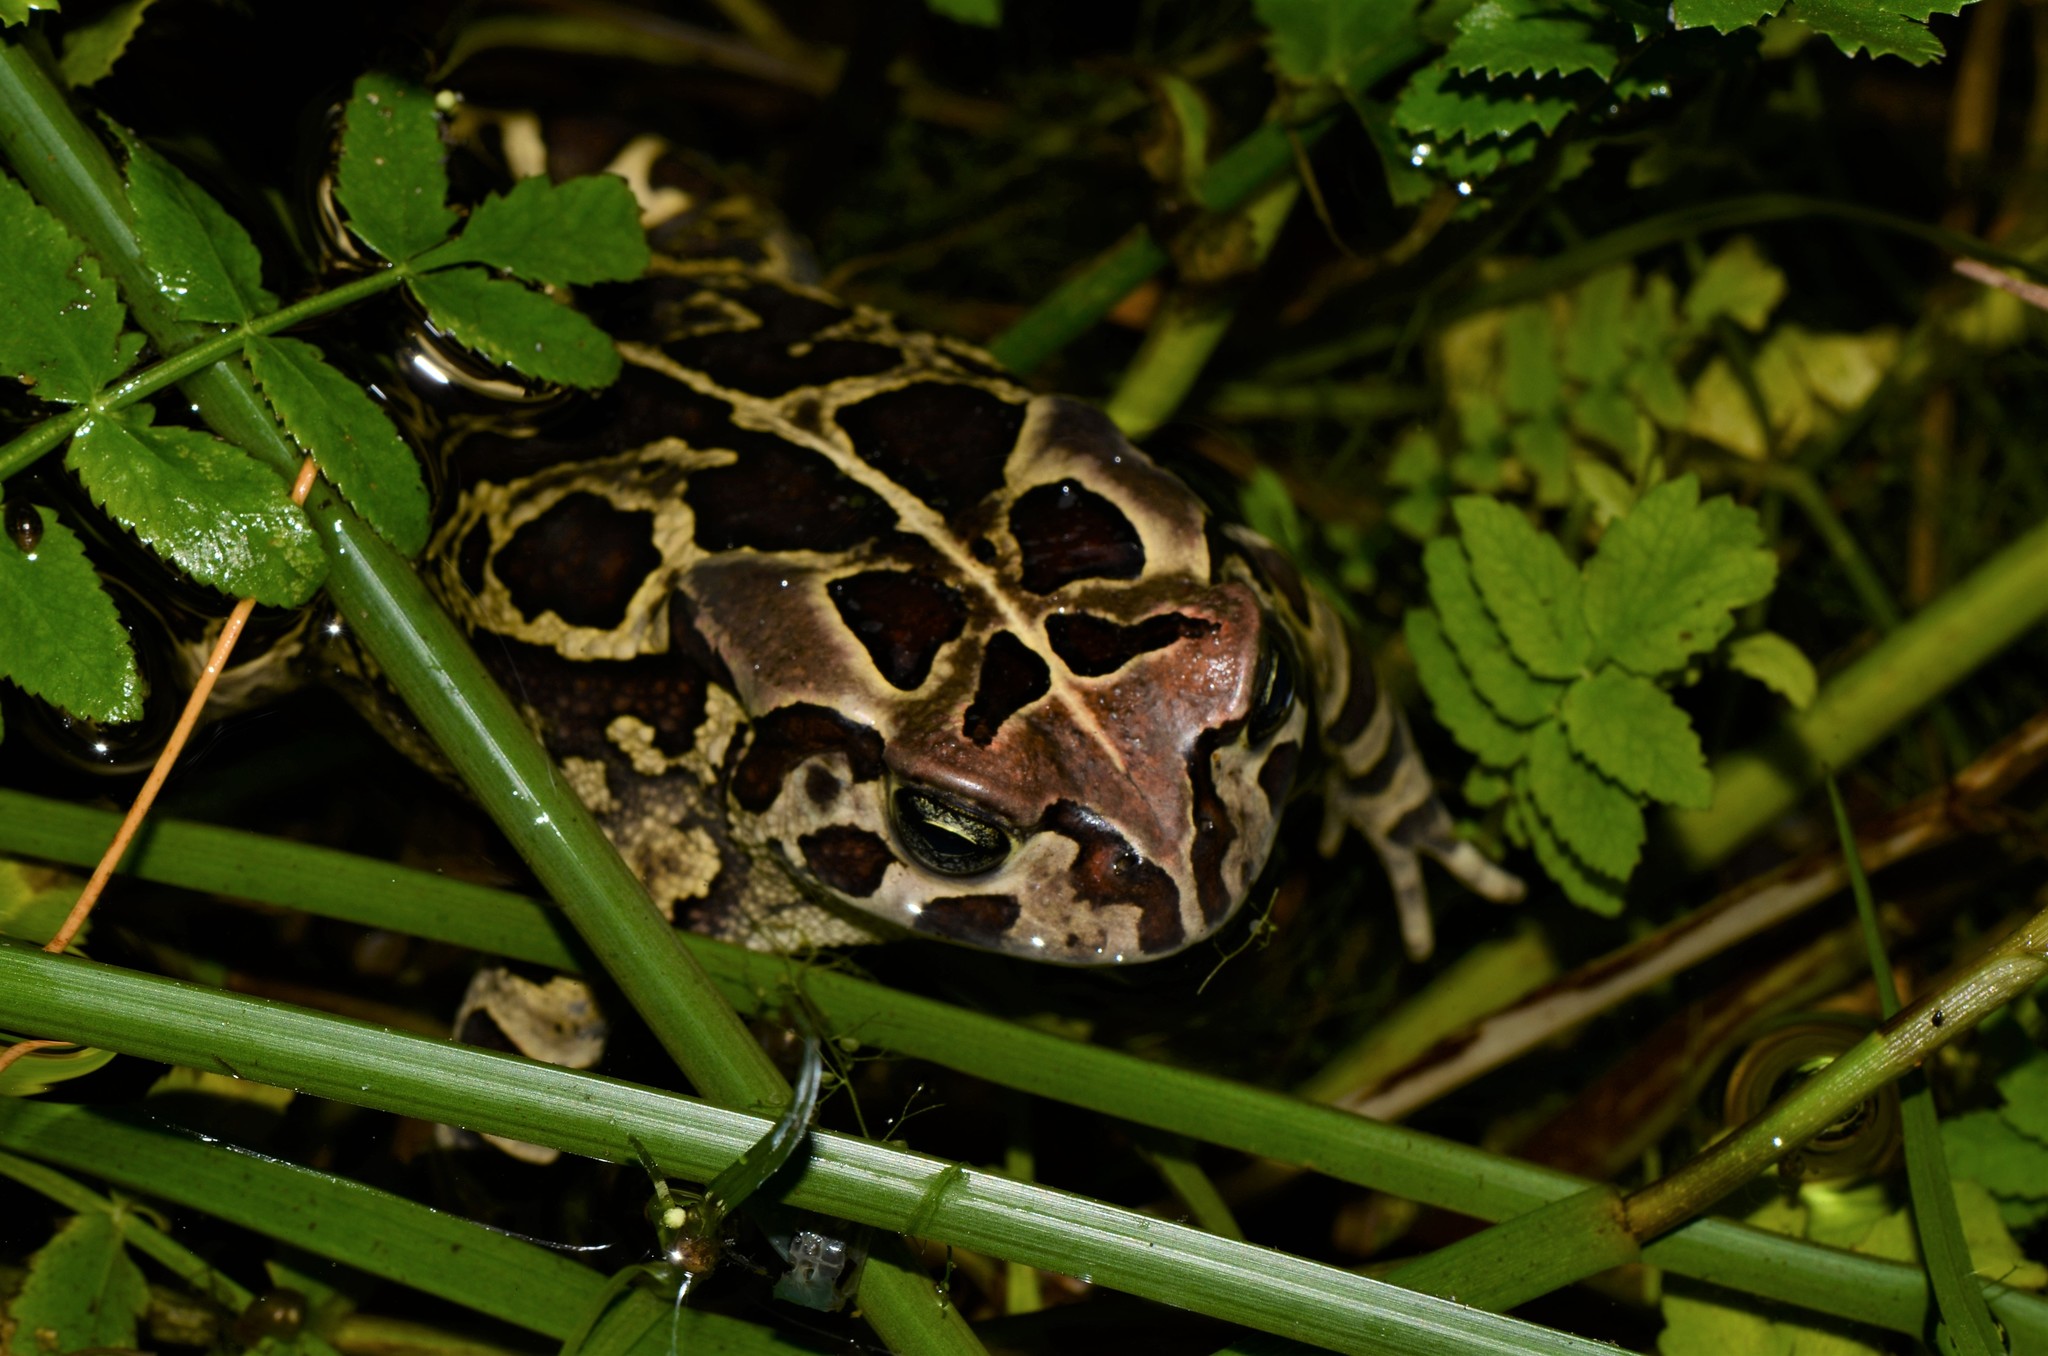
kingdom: Animalia
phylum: Chordata
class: Amphibia
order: Anura
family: Bufonidae
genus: Sclerophrys
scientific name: Sclerophrys pantherina
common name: Panther toad
